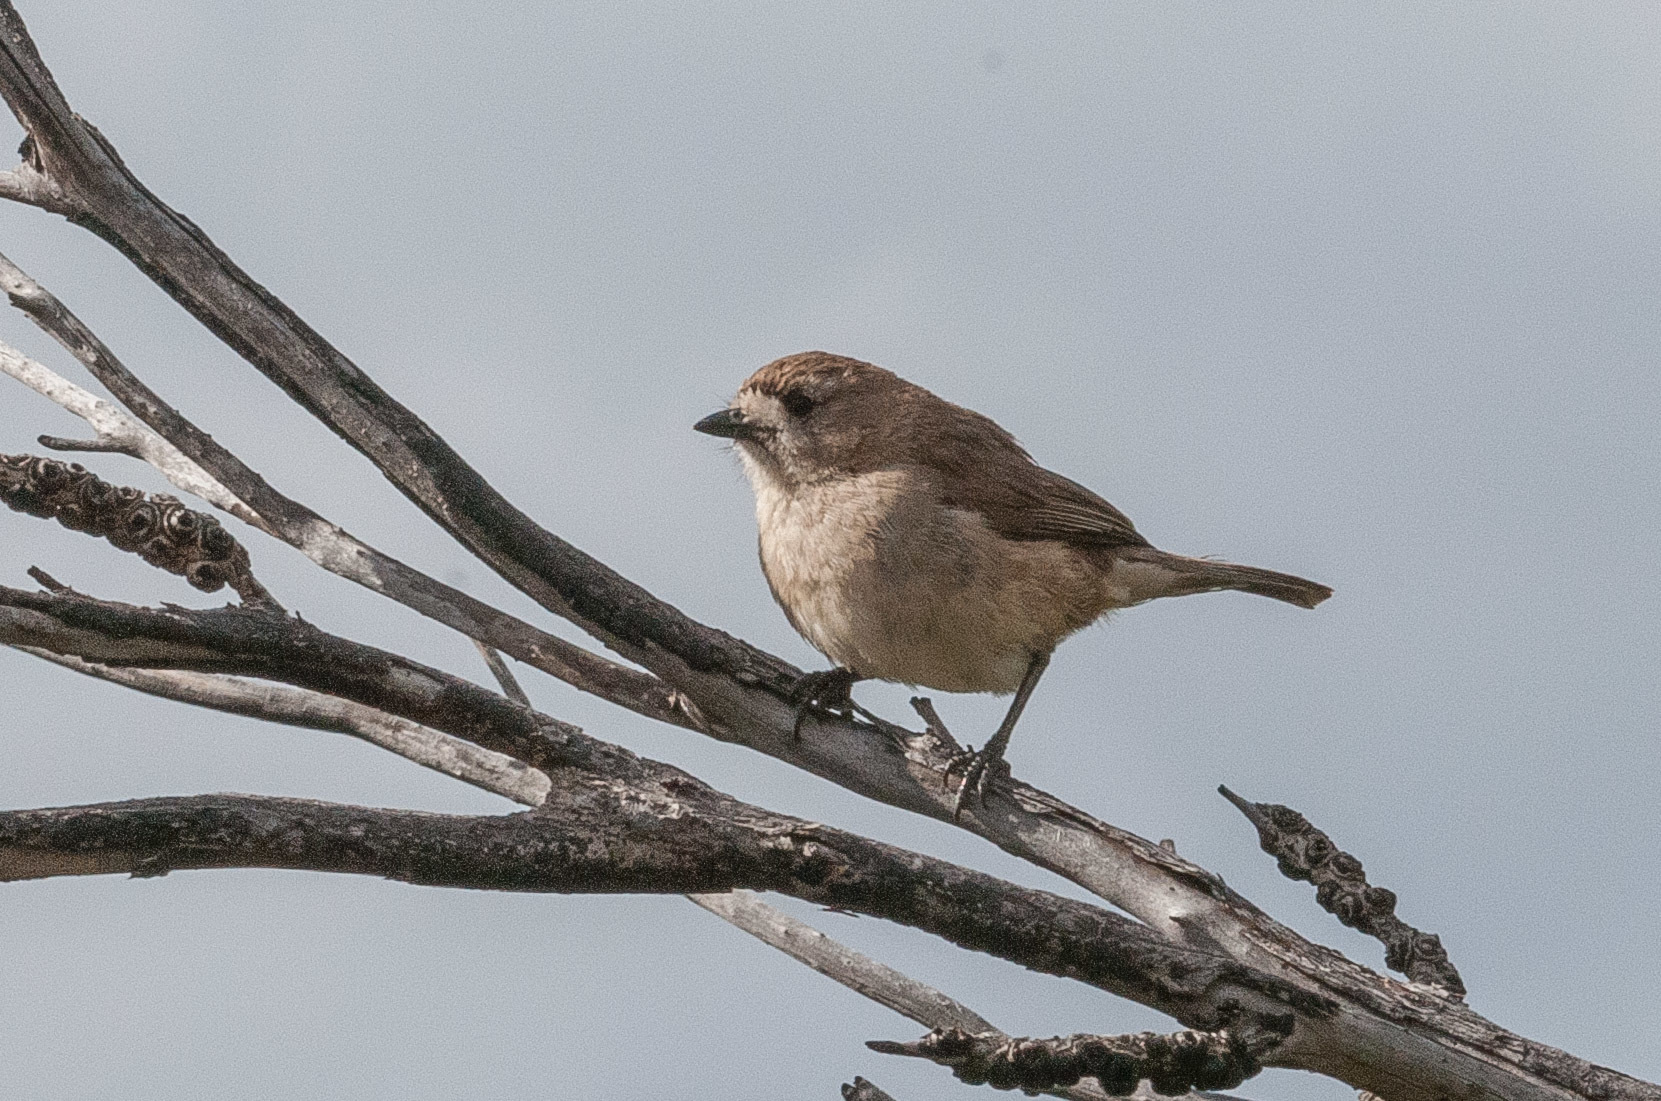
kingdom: Animalia
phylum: Chordata
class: Aves
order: Passeriformes
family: Acanthizidae
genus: Aphelocephala
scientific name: Aphelocephala leucopsis
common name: Southern whiteface
